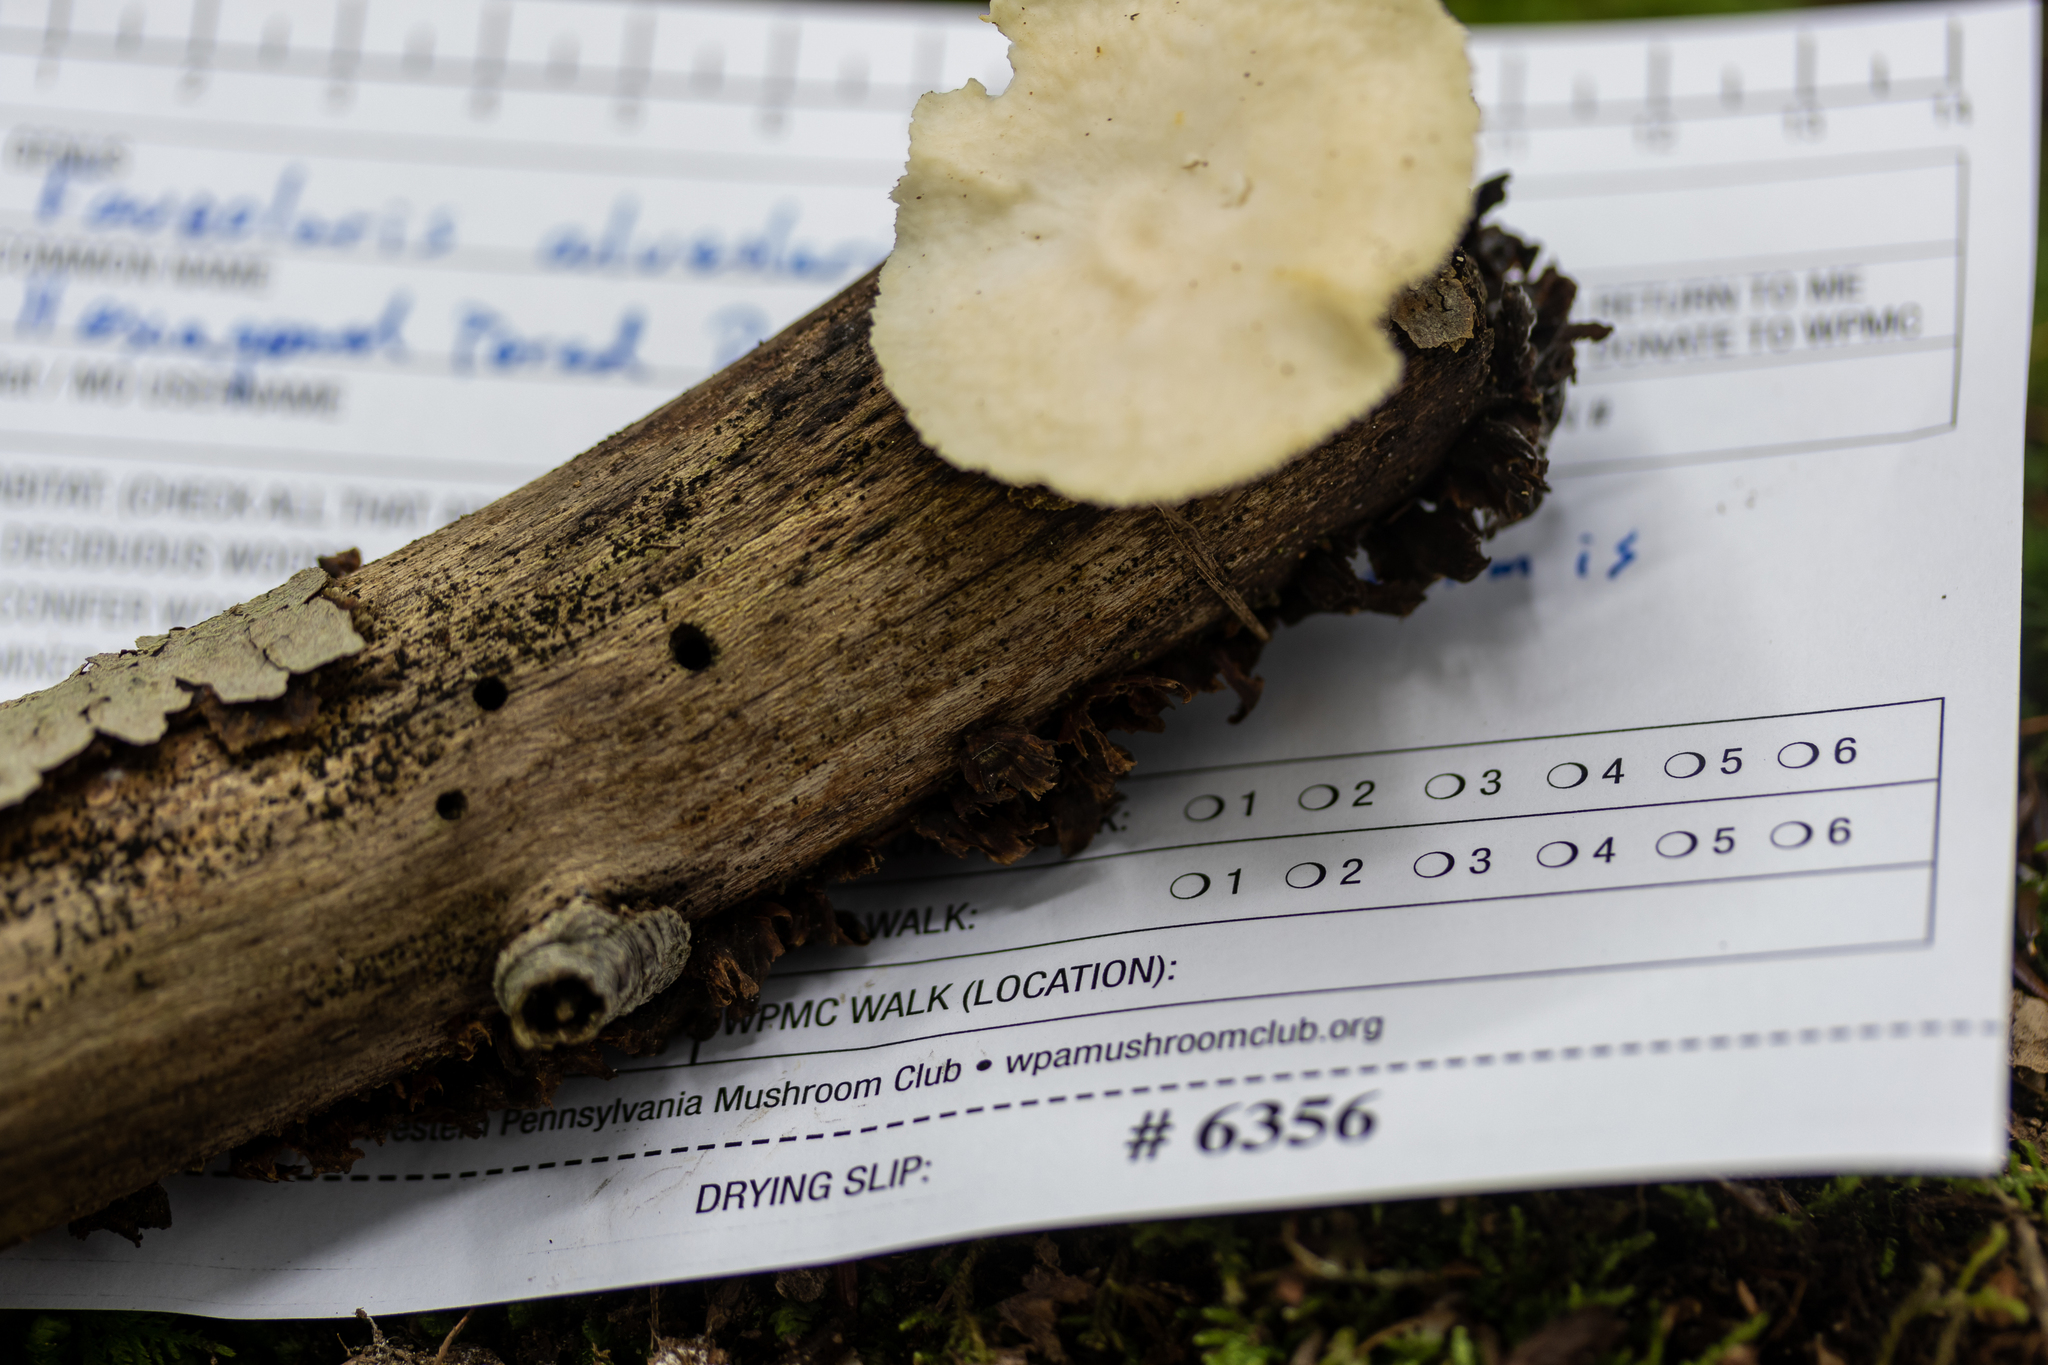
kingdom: Fungi
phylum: Basidiomycota
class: Agaricomycetes
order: Polyporales
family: Polyporaceae
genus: Neofavolus
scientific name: Neofavolus alveolaris
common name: Hexagonal-pored polypore
